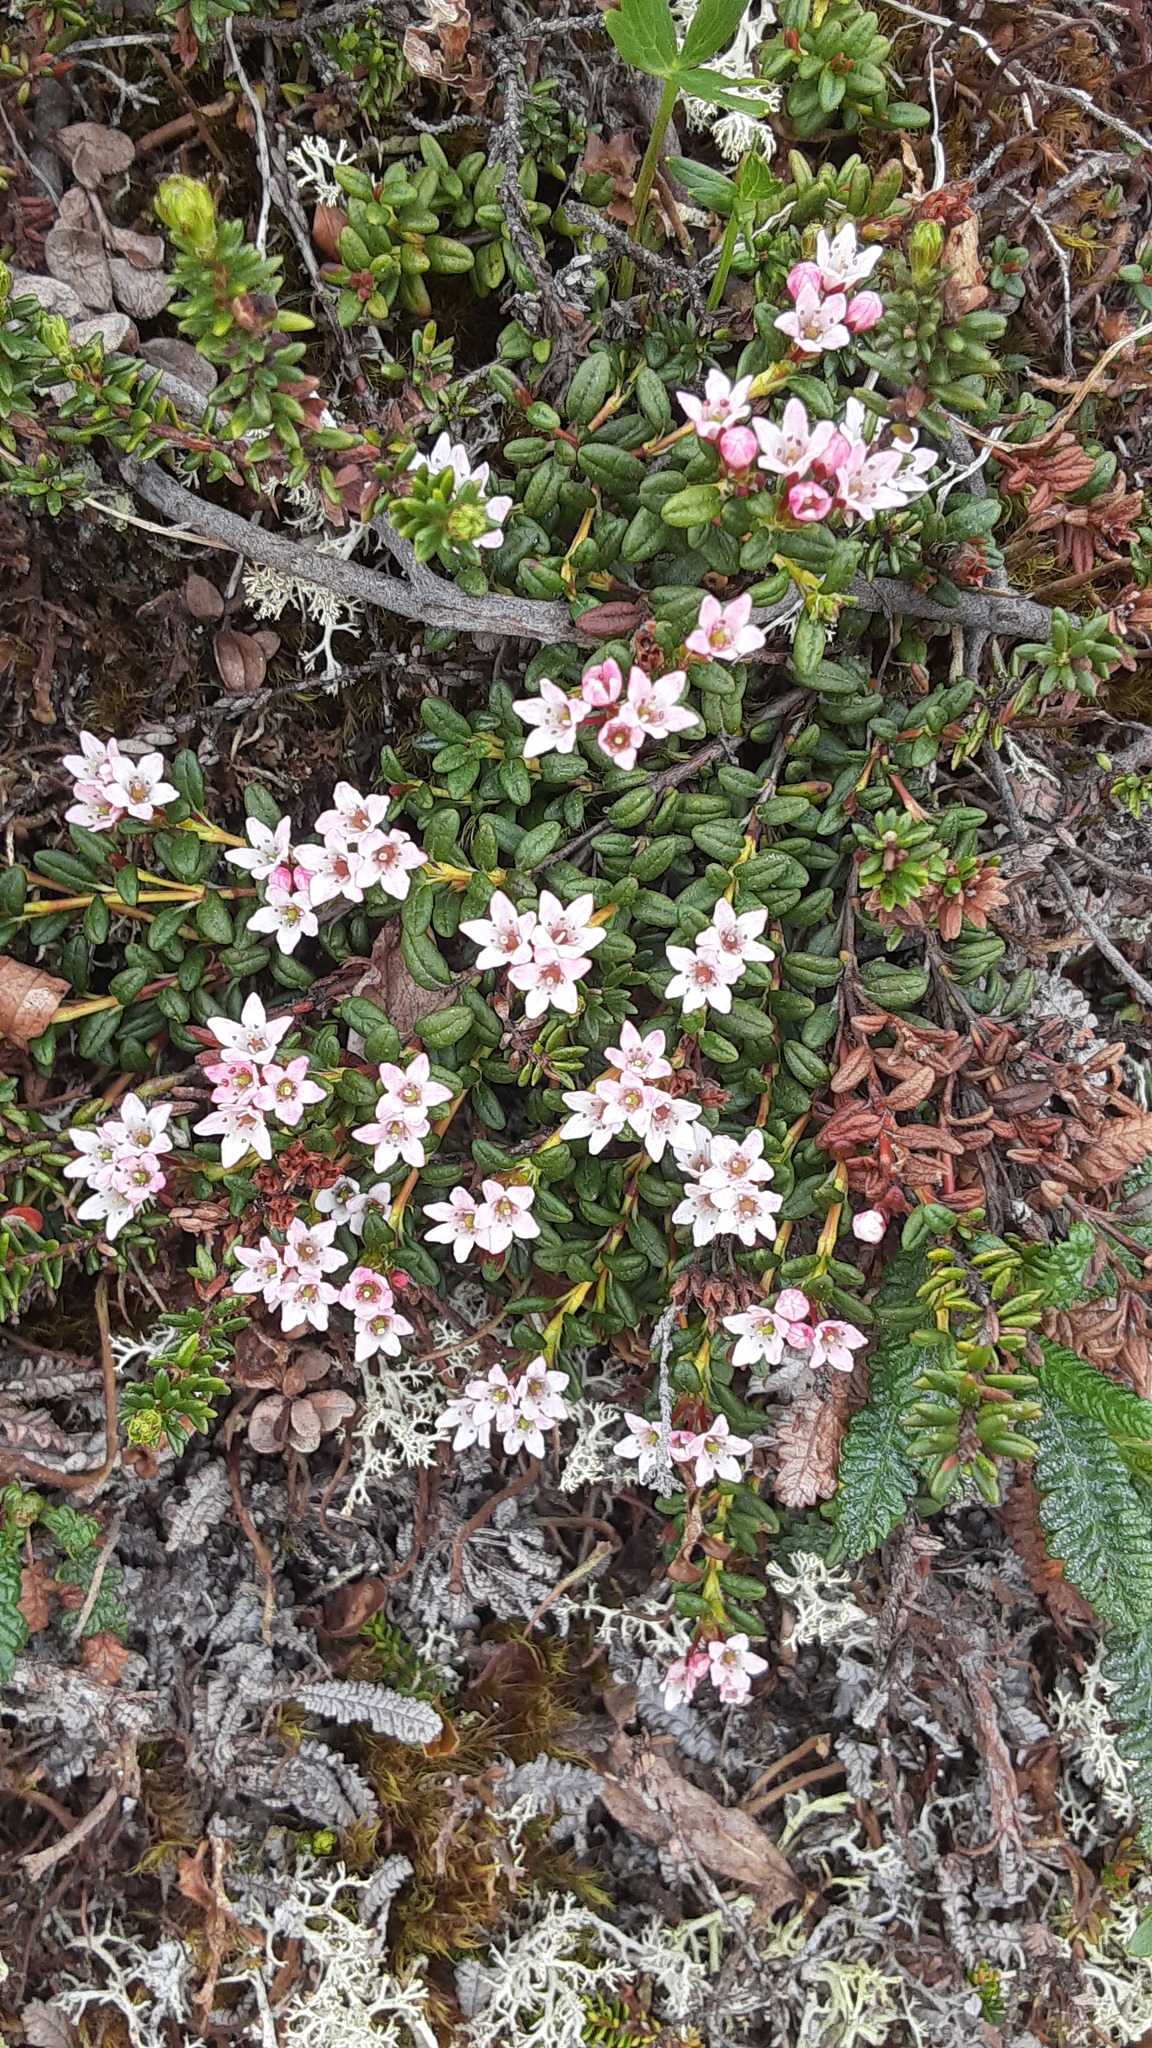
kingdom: Plantae
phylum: Tracheophyta
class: Magnoliopsida
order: Ericales
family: Ericaceae
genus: Kalmia
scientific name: Kalmia procumbens
